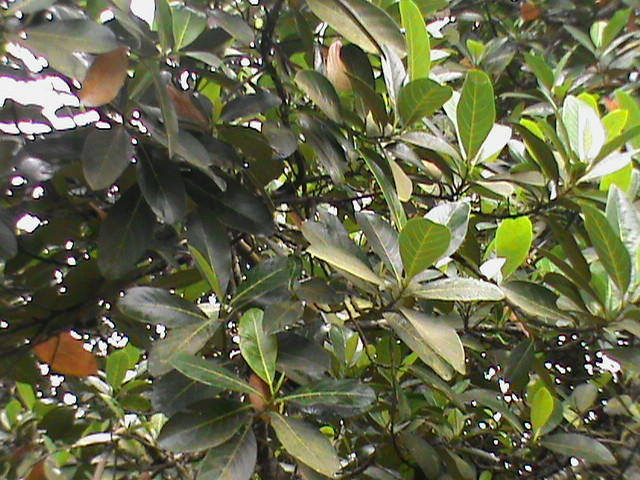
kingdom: Plantae
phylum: Tracheophyta
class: Magnoliopsida
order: Rosales
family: Moraceae
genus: Artocarpus
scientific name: Artocarpus heterophyllus
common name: Jackfruit
